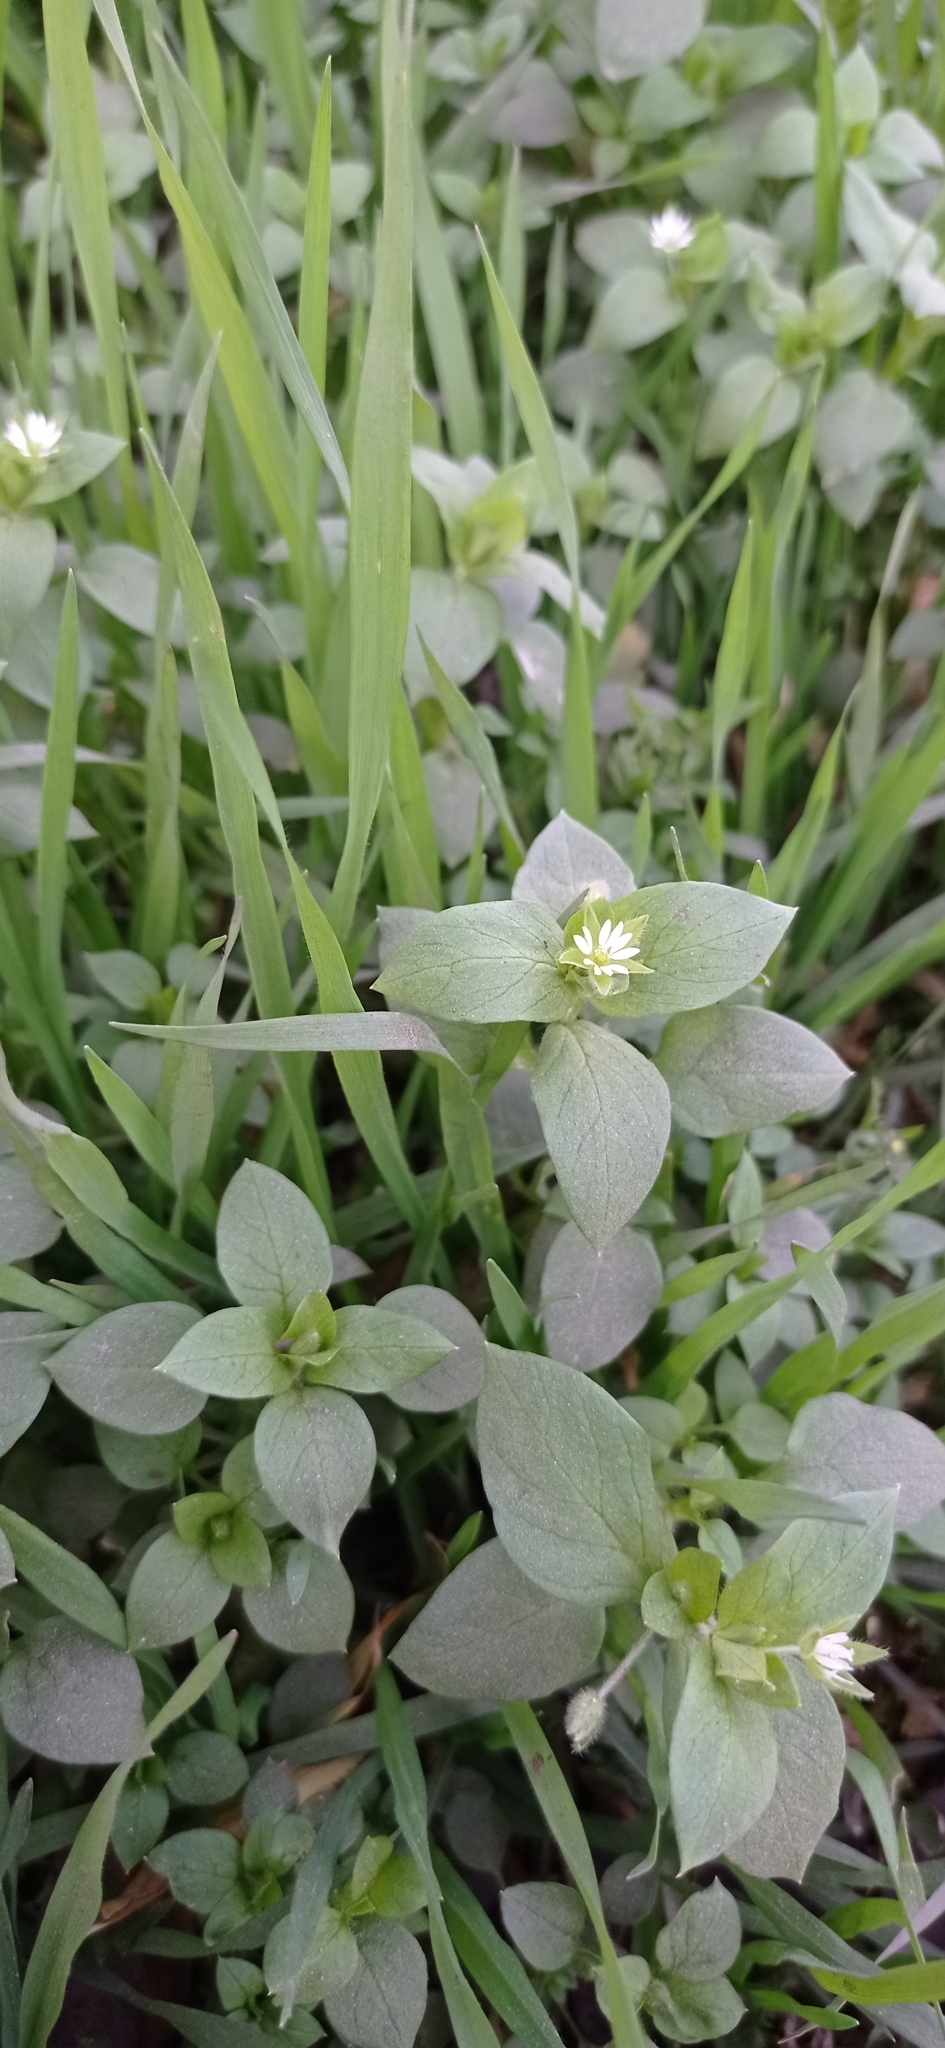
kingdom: Plantae
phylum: Tracheophyta
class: Magnoliopsida
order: Caryophyllales
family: Caryophyllaceae
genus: Stellaria
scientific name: Stellaria media
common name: Common chickweed
